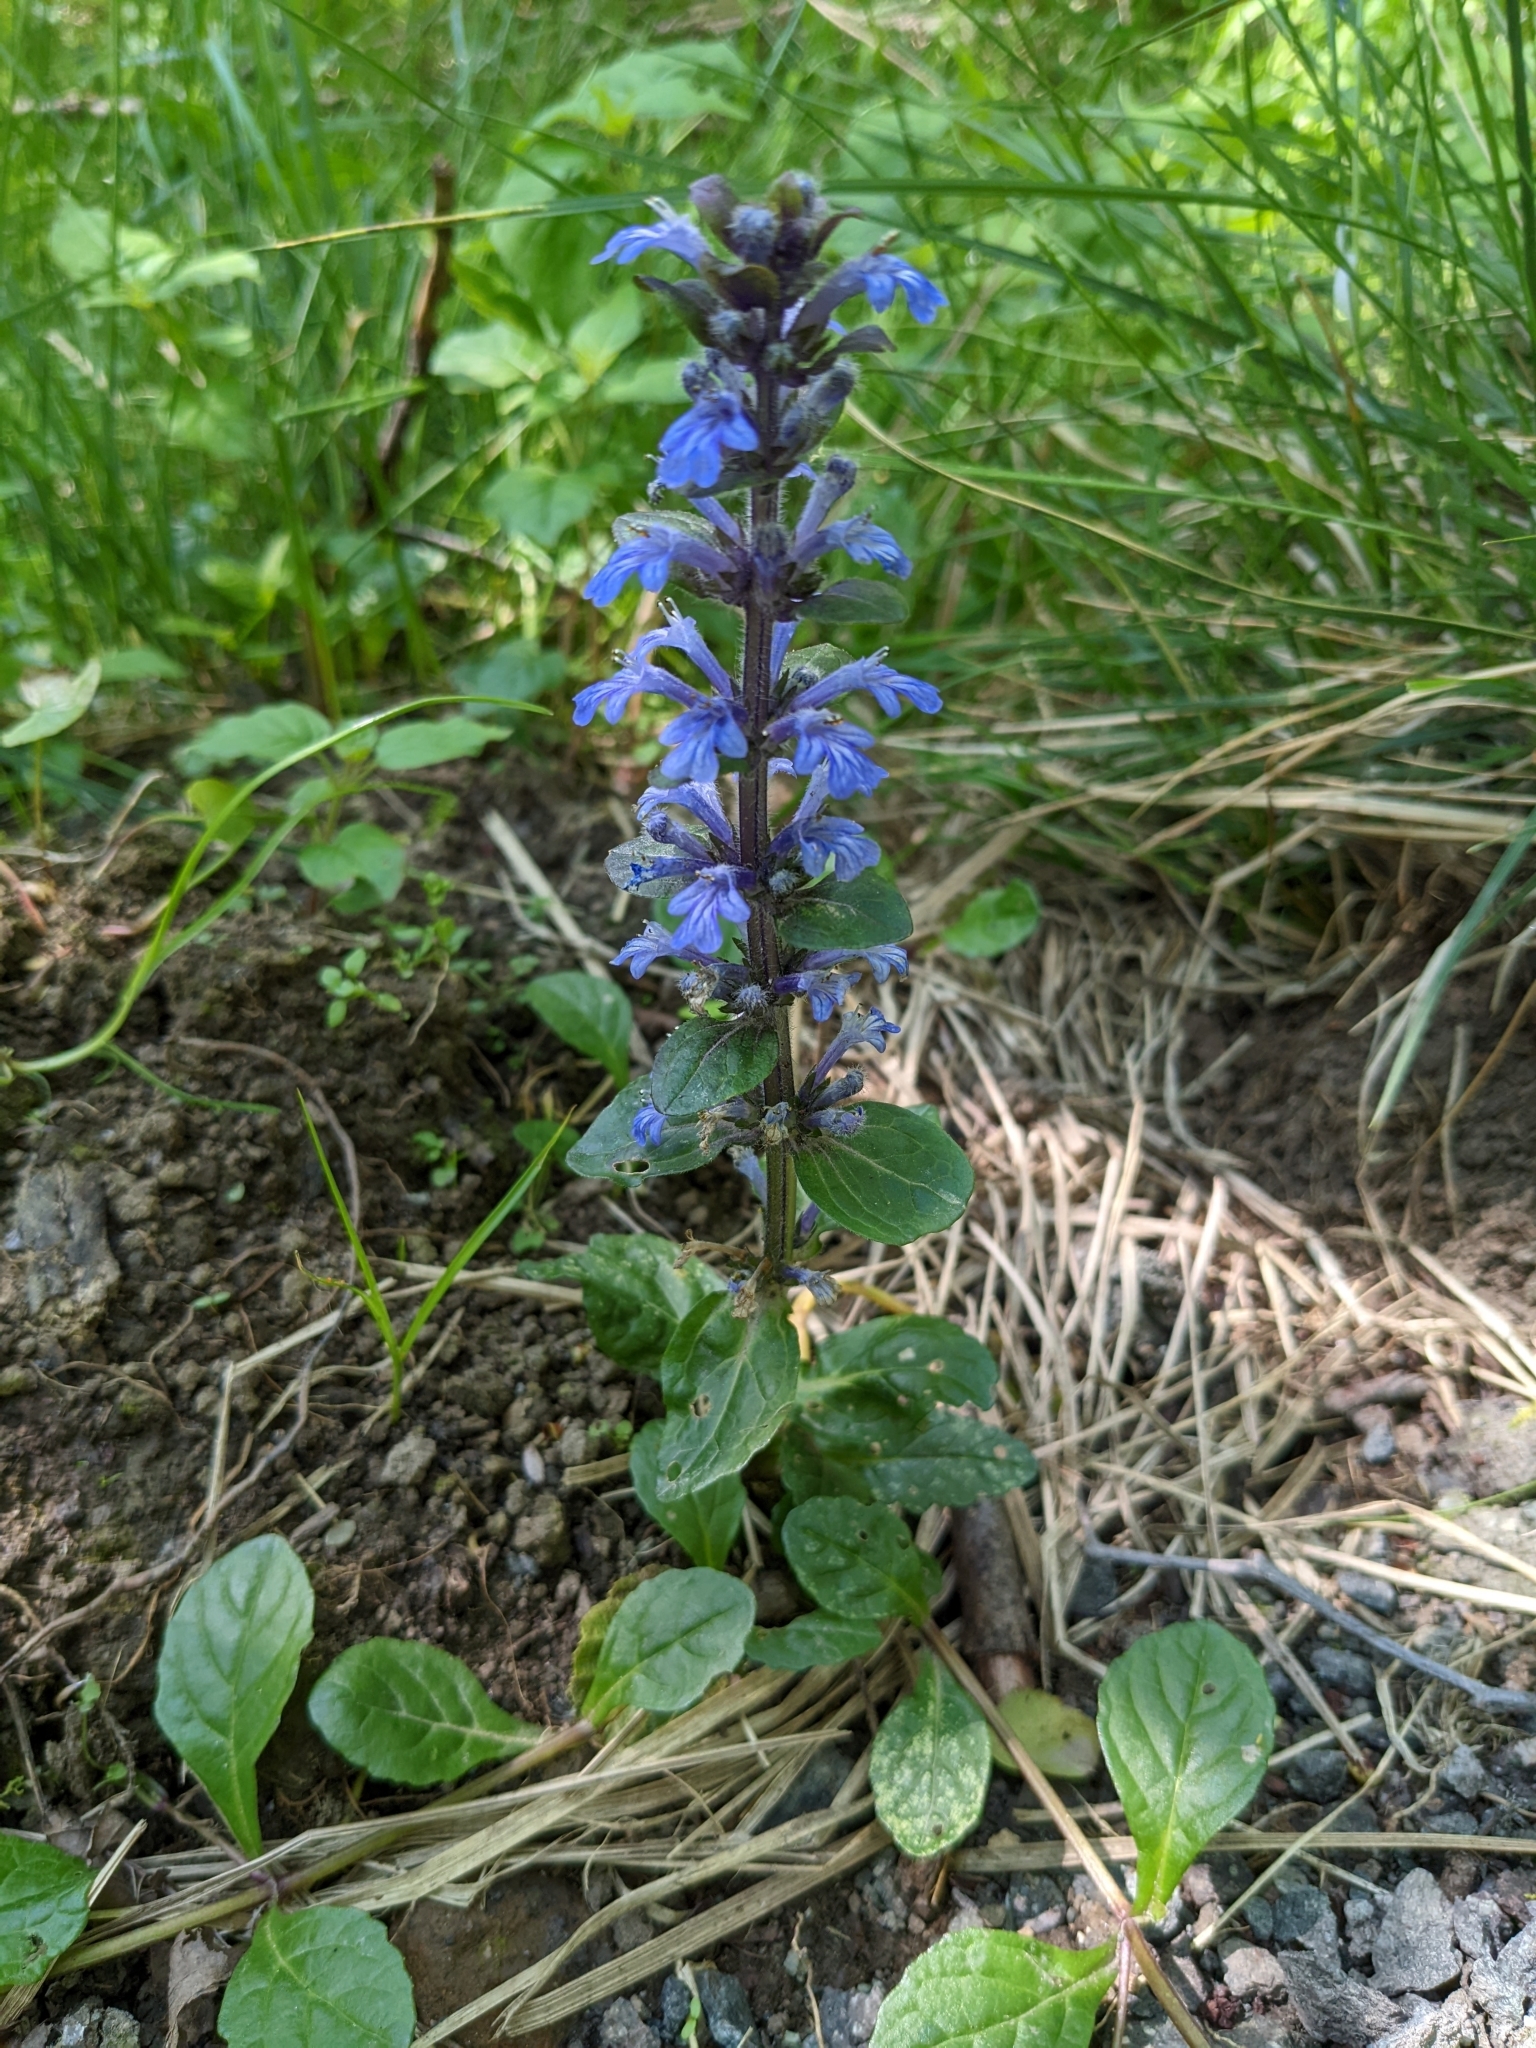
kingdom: Plantae
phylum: Tracheophyta
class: Magnoliopsida
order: Lamiales
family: Lamiaceae
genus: Ajuga
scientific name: Ajuga reptans
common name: Bugle
